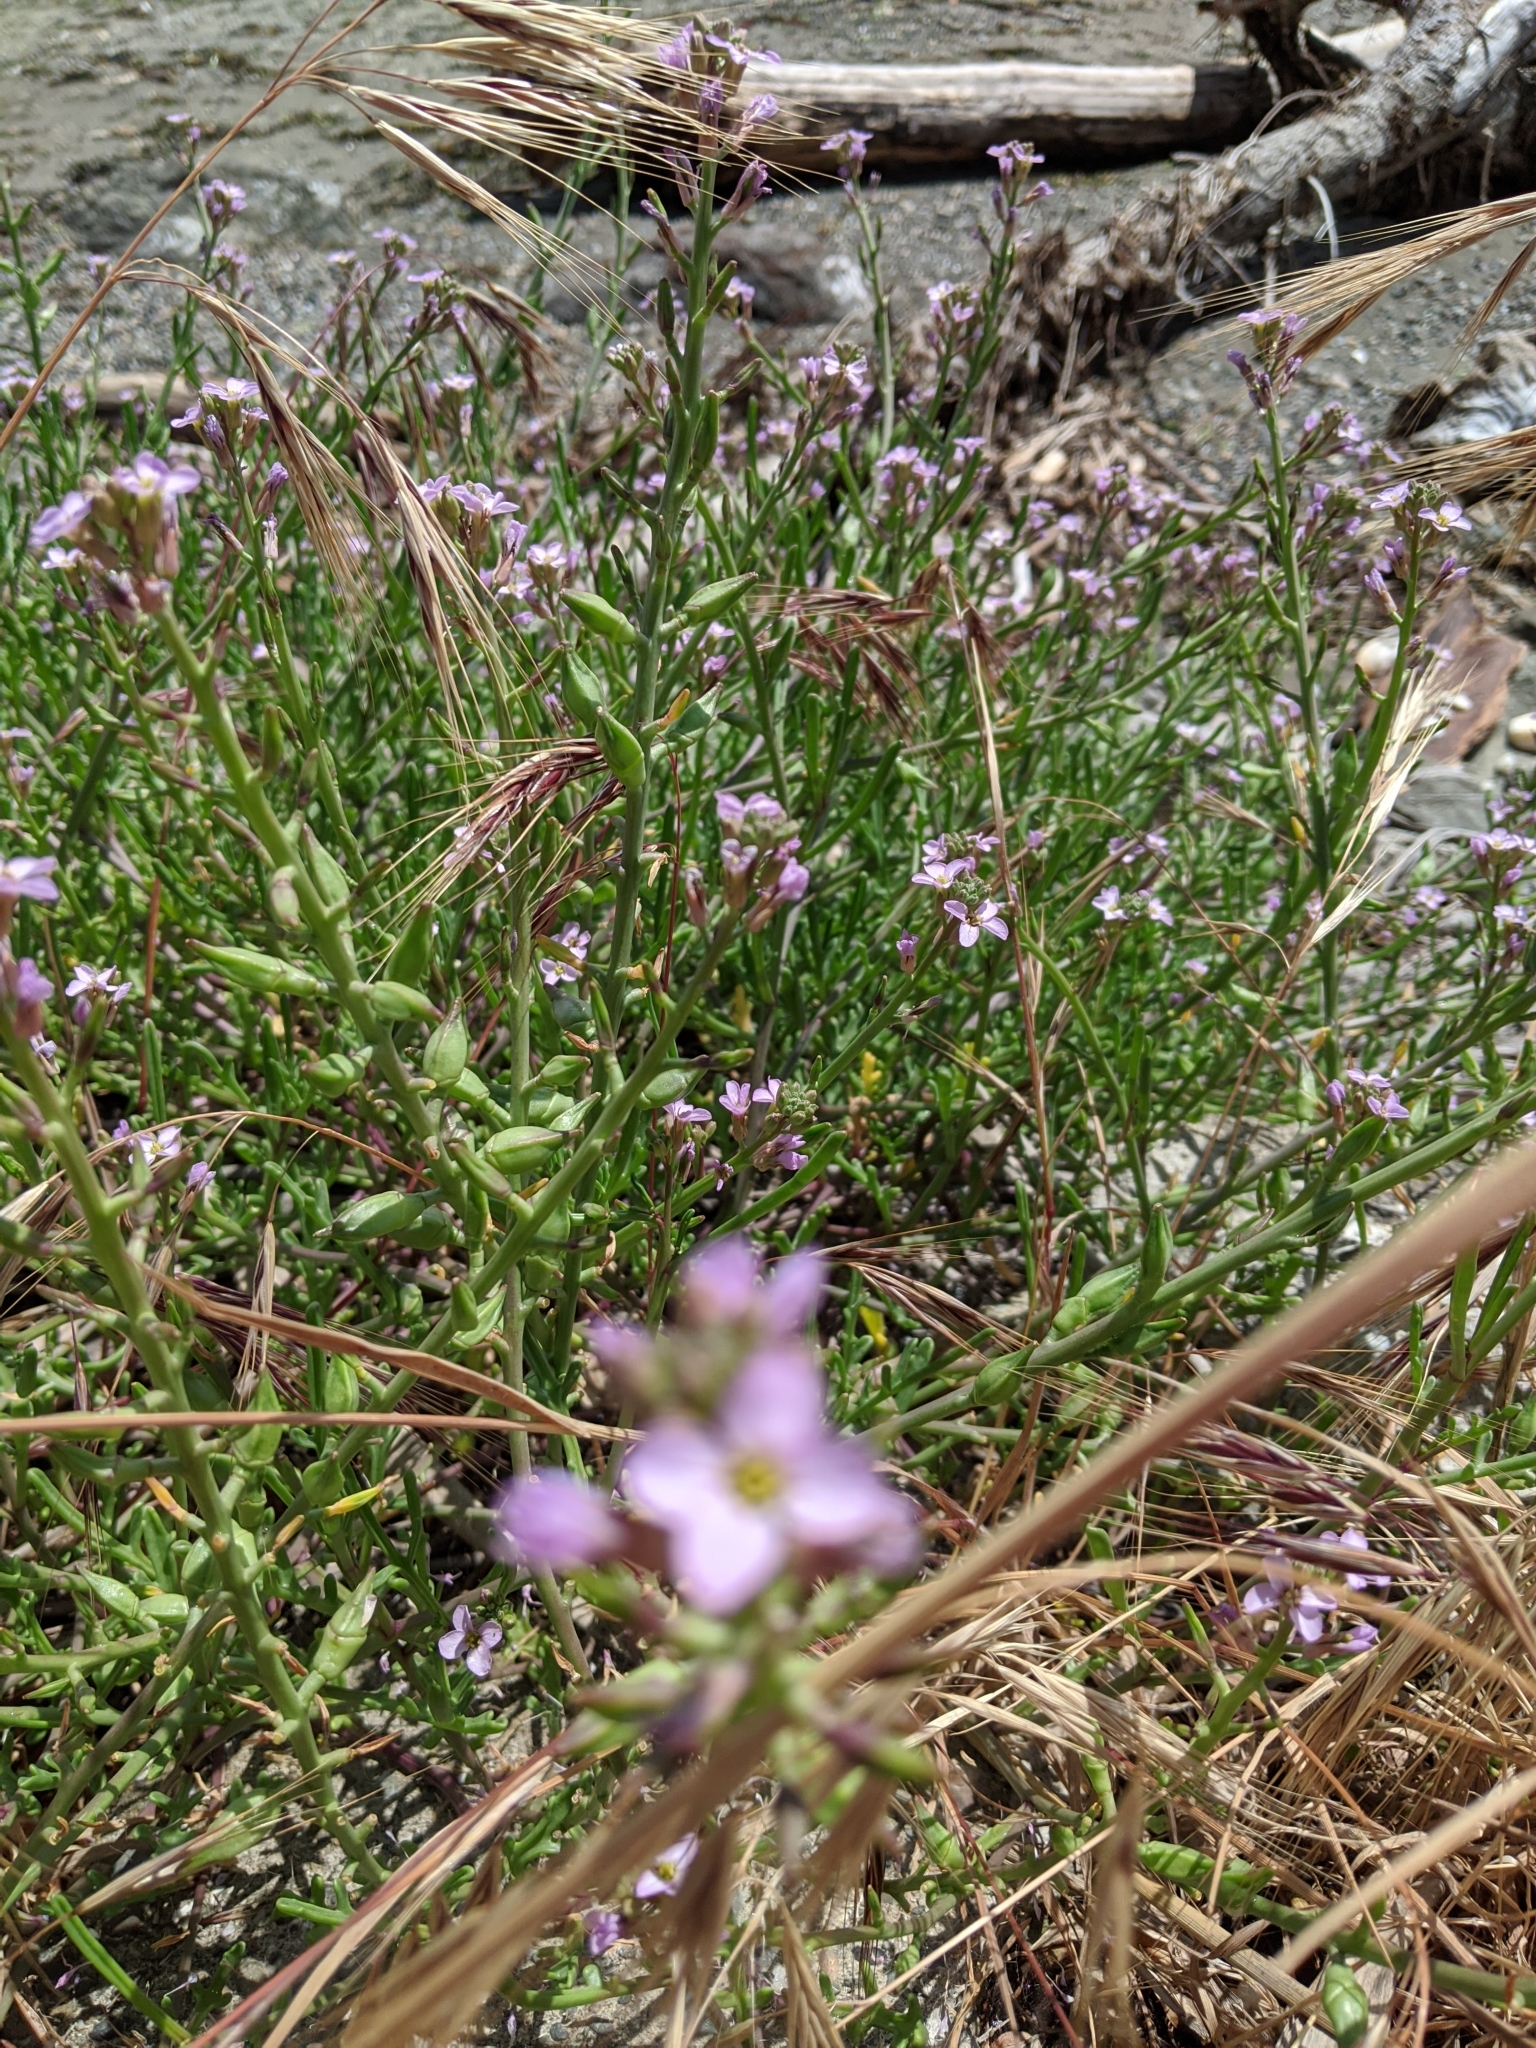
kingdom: Plantae
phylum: Tracheophyta
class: Magnoliopsida
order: Brassicales
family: Brassicaceae
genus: Cakile
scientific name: Cakile maritima
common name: Sea rocket
